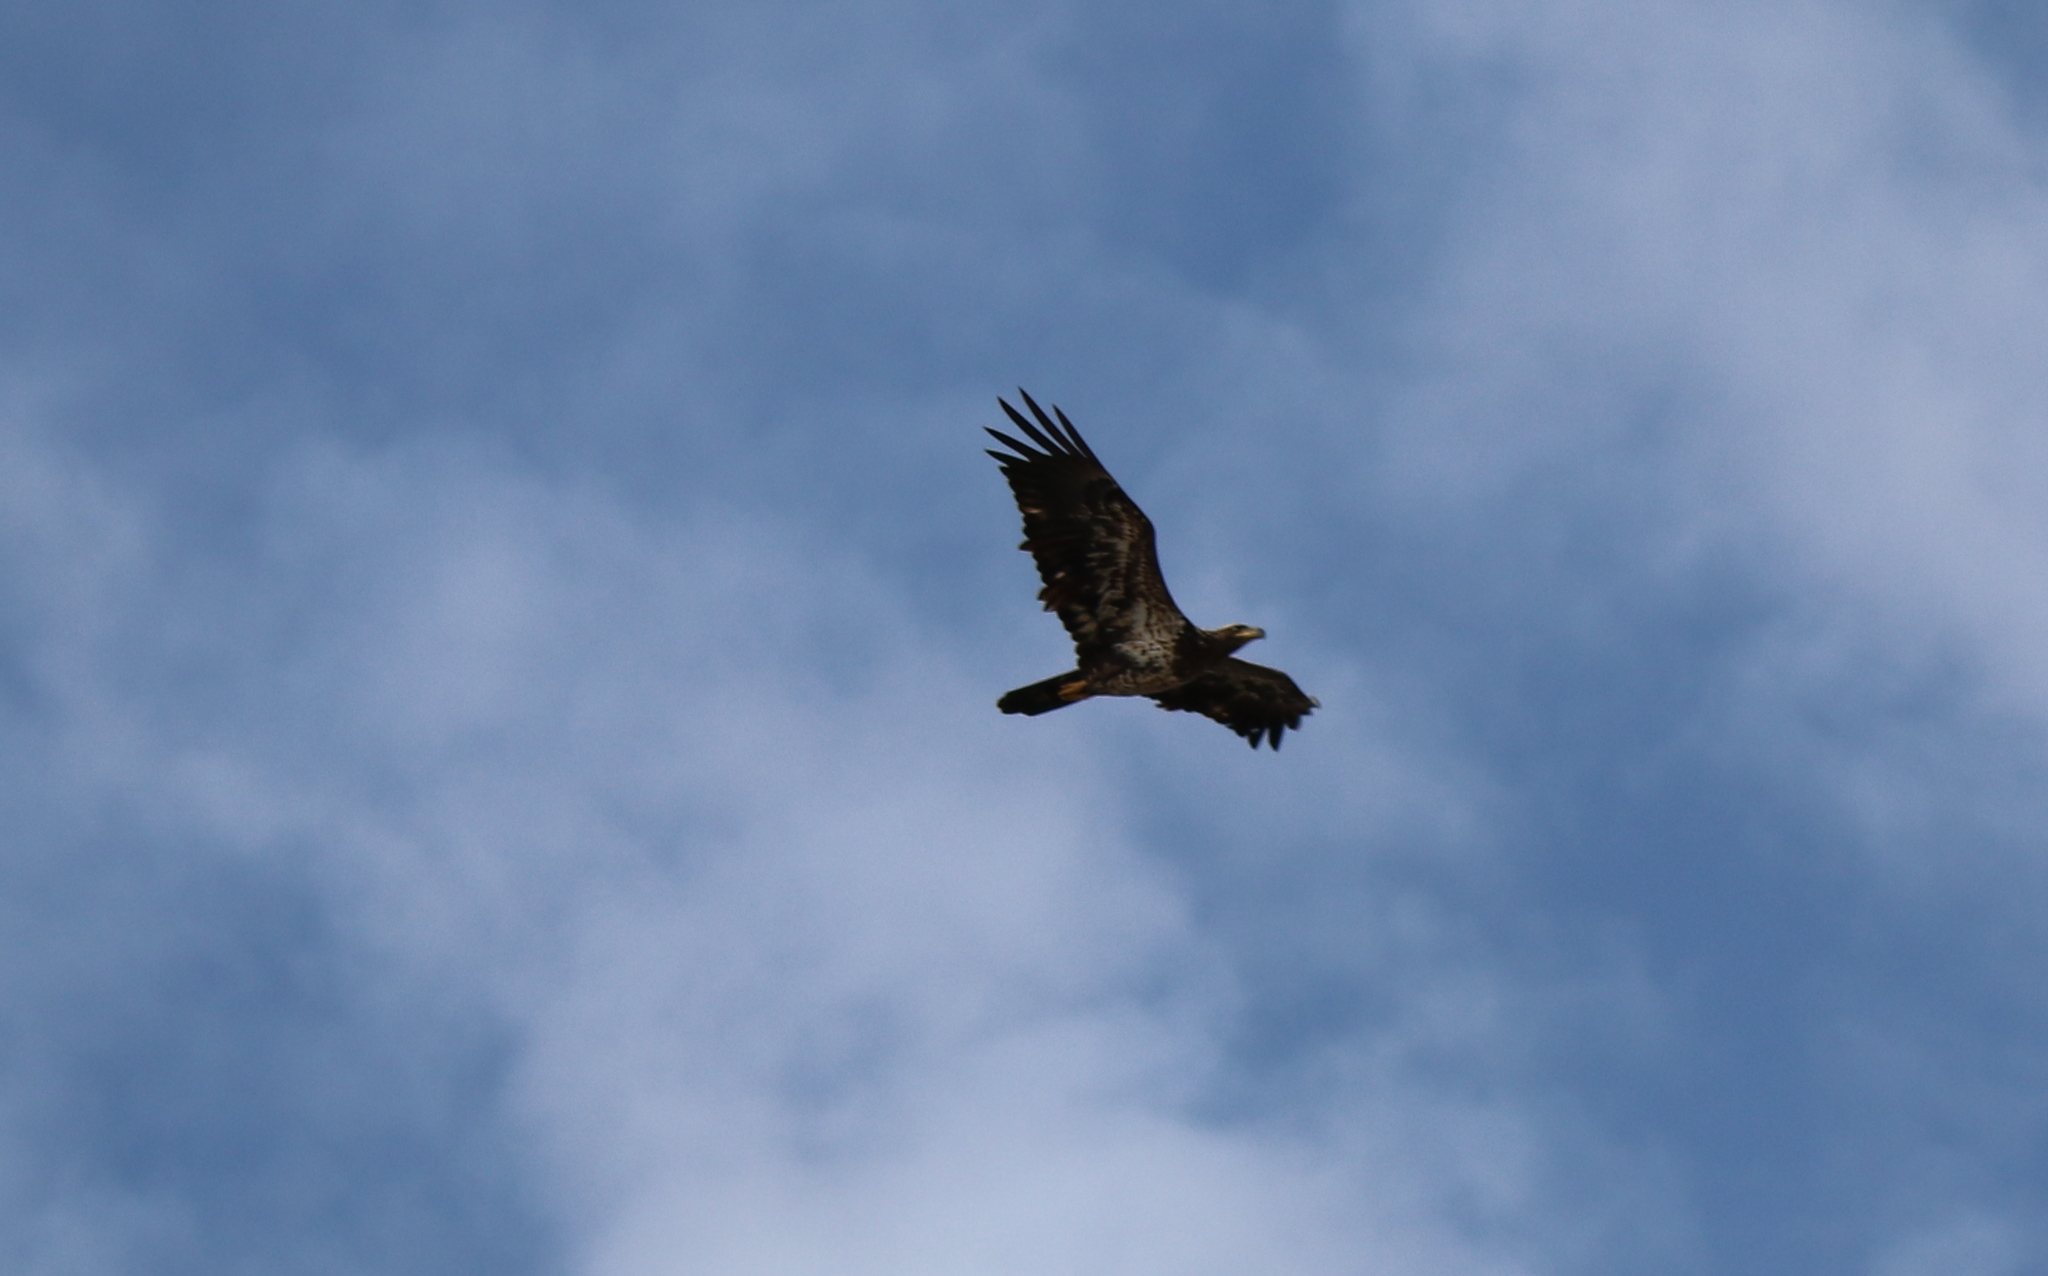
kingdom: Animalia
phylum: Chordata
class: Aves
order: Accipitriformes
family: Accipitridae
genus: Haliaeetus
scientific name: Haliaeetus leucocephalus
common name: Bald eagle
